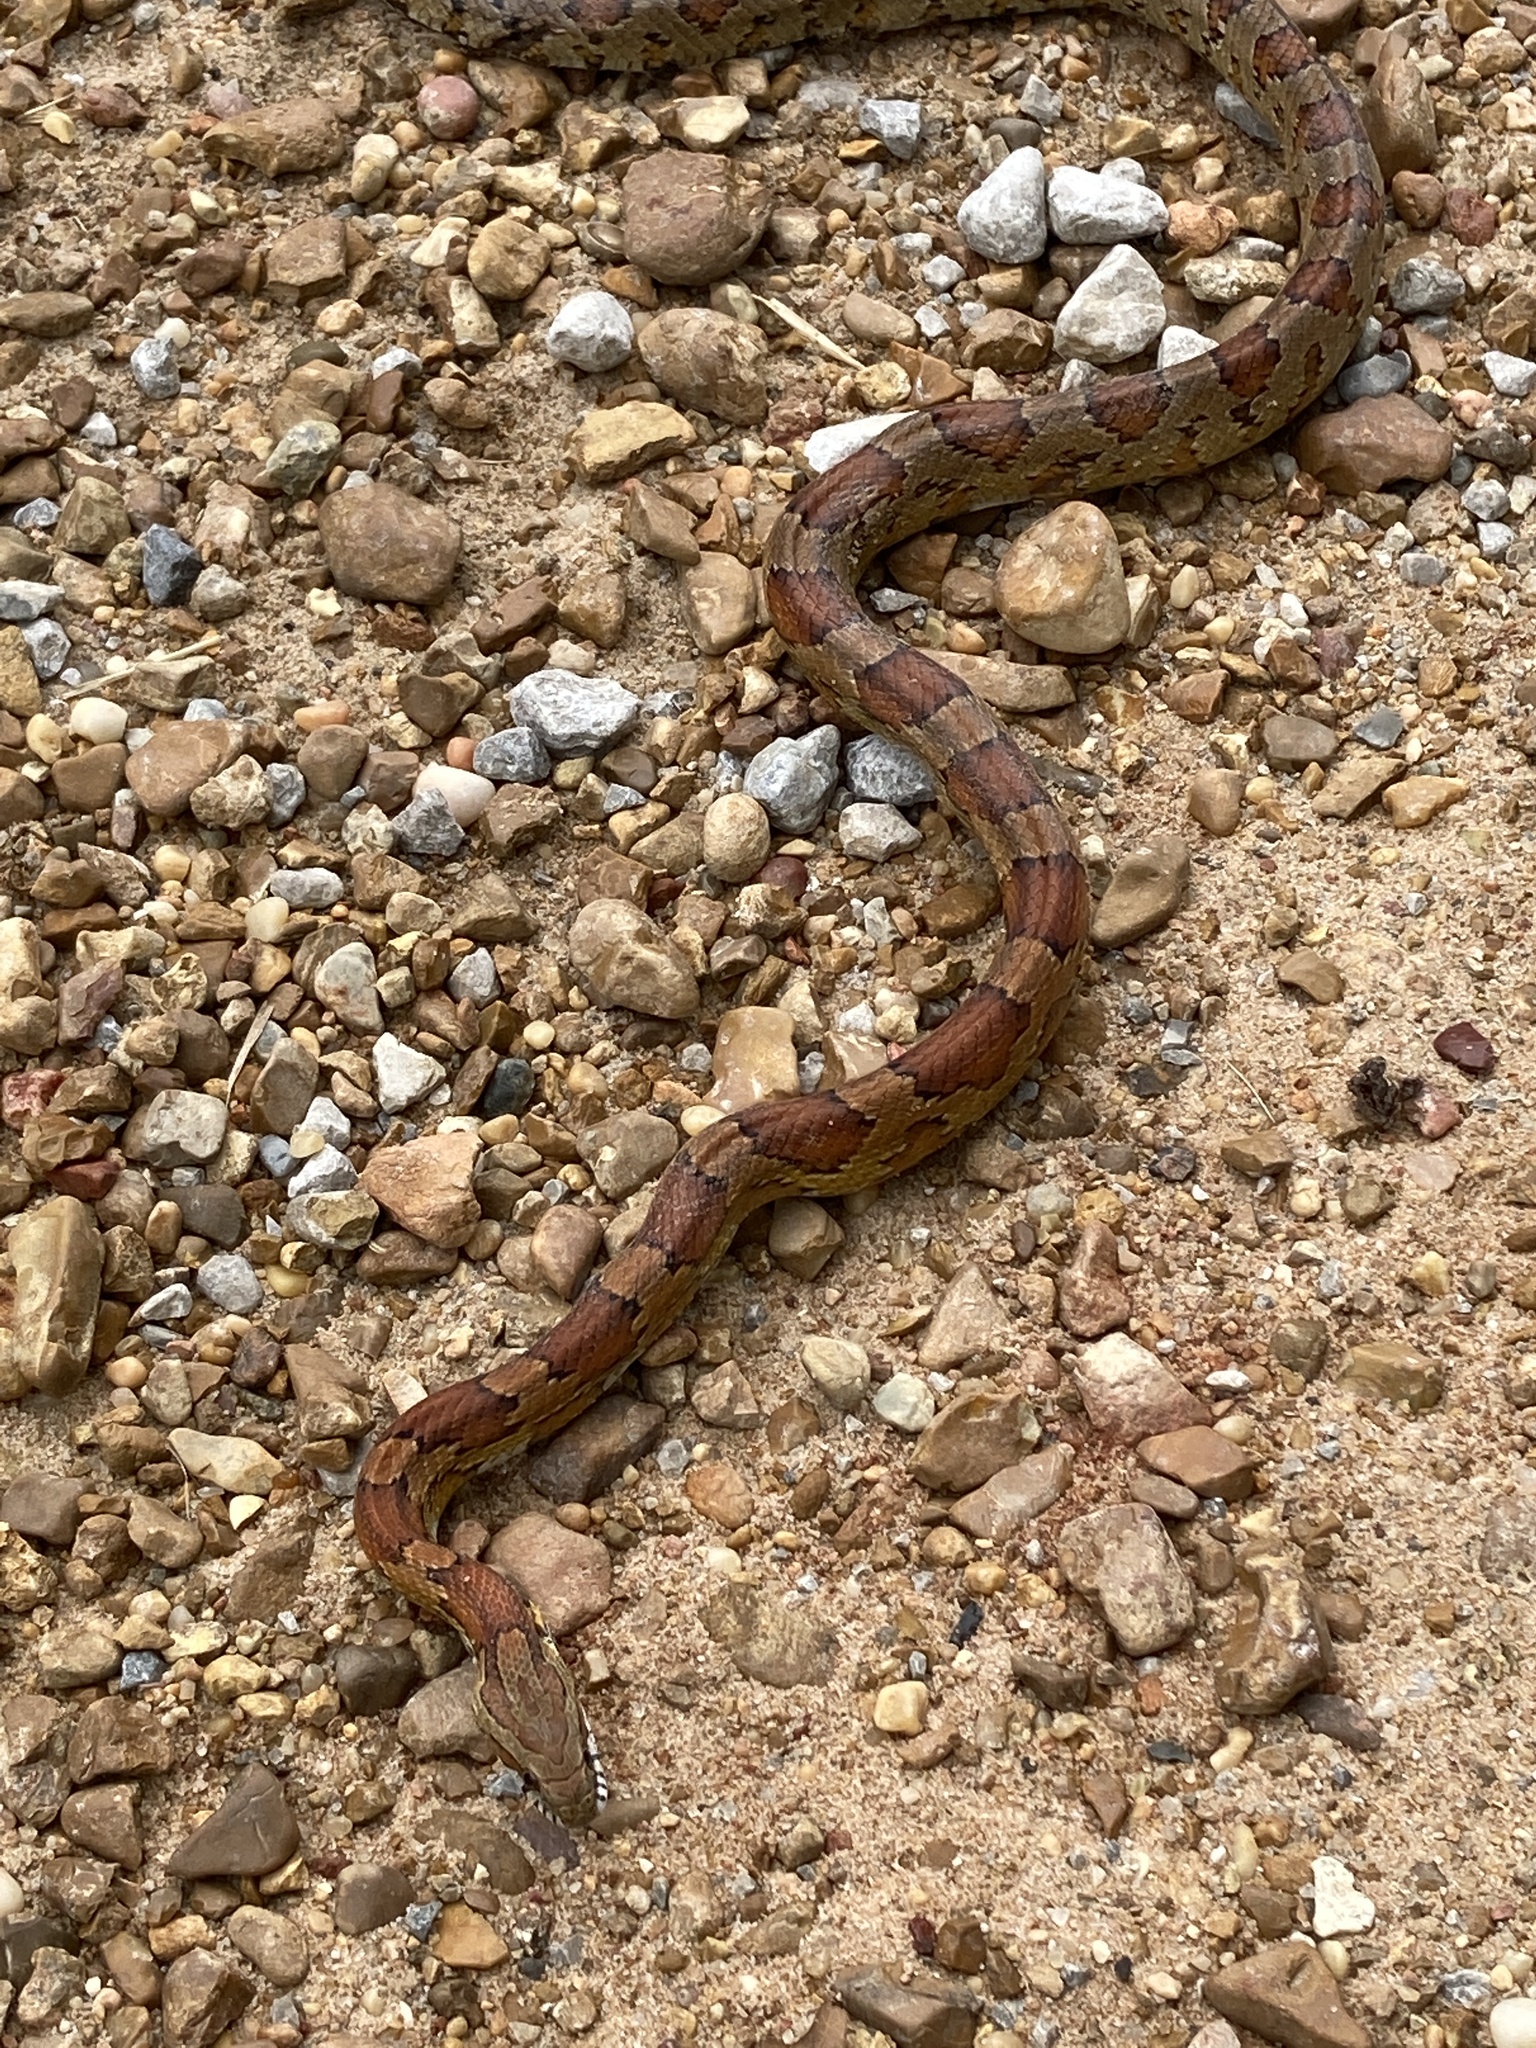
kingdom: Animalia
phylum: Chordata
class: Squamata
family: Colubridae
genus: Pantherophis
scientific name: Pantherophis guttatus
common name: Red cornsnake
